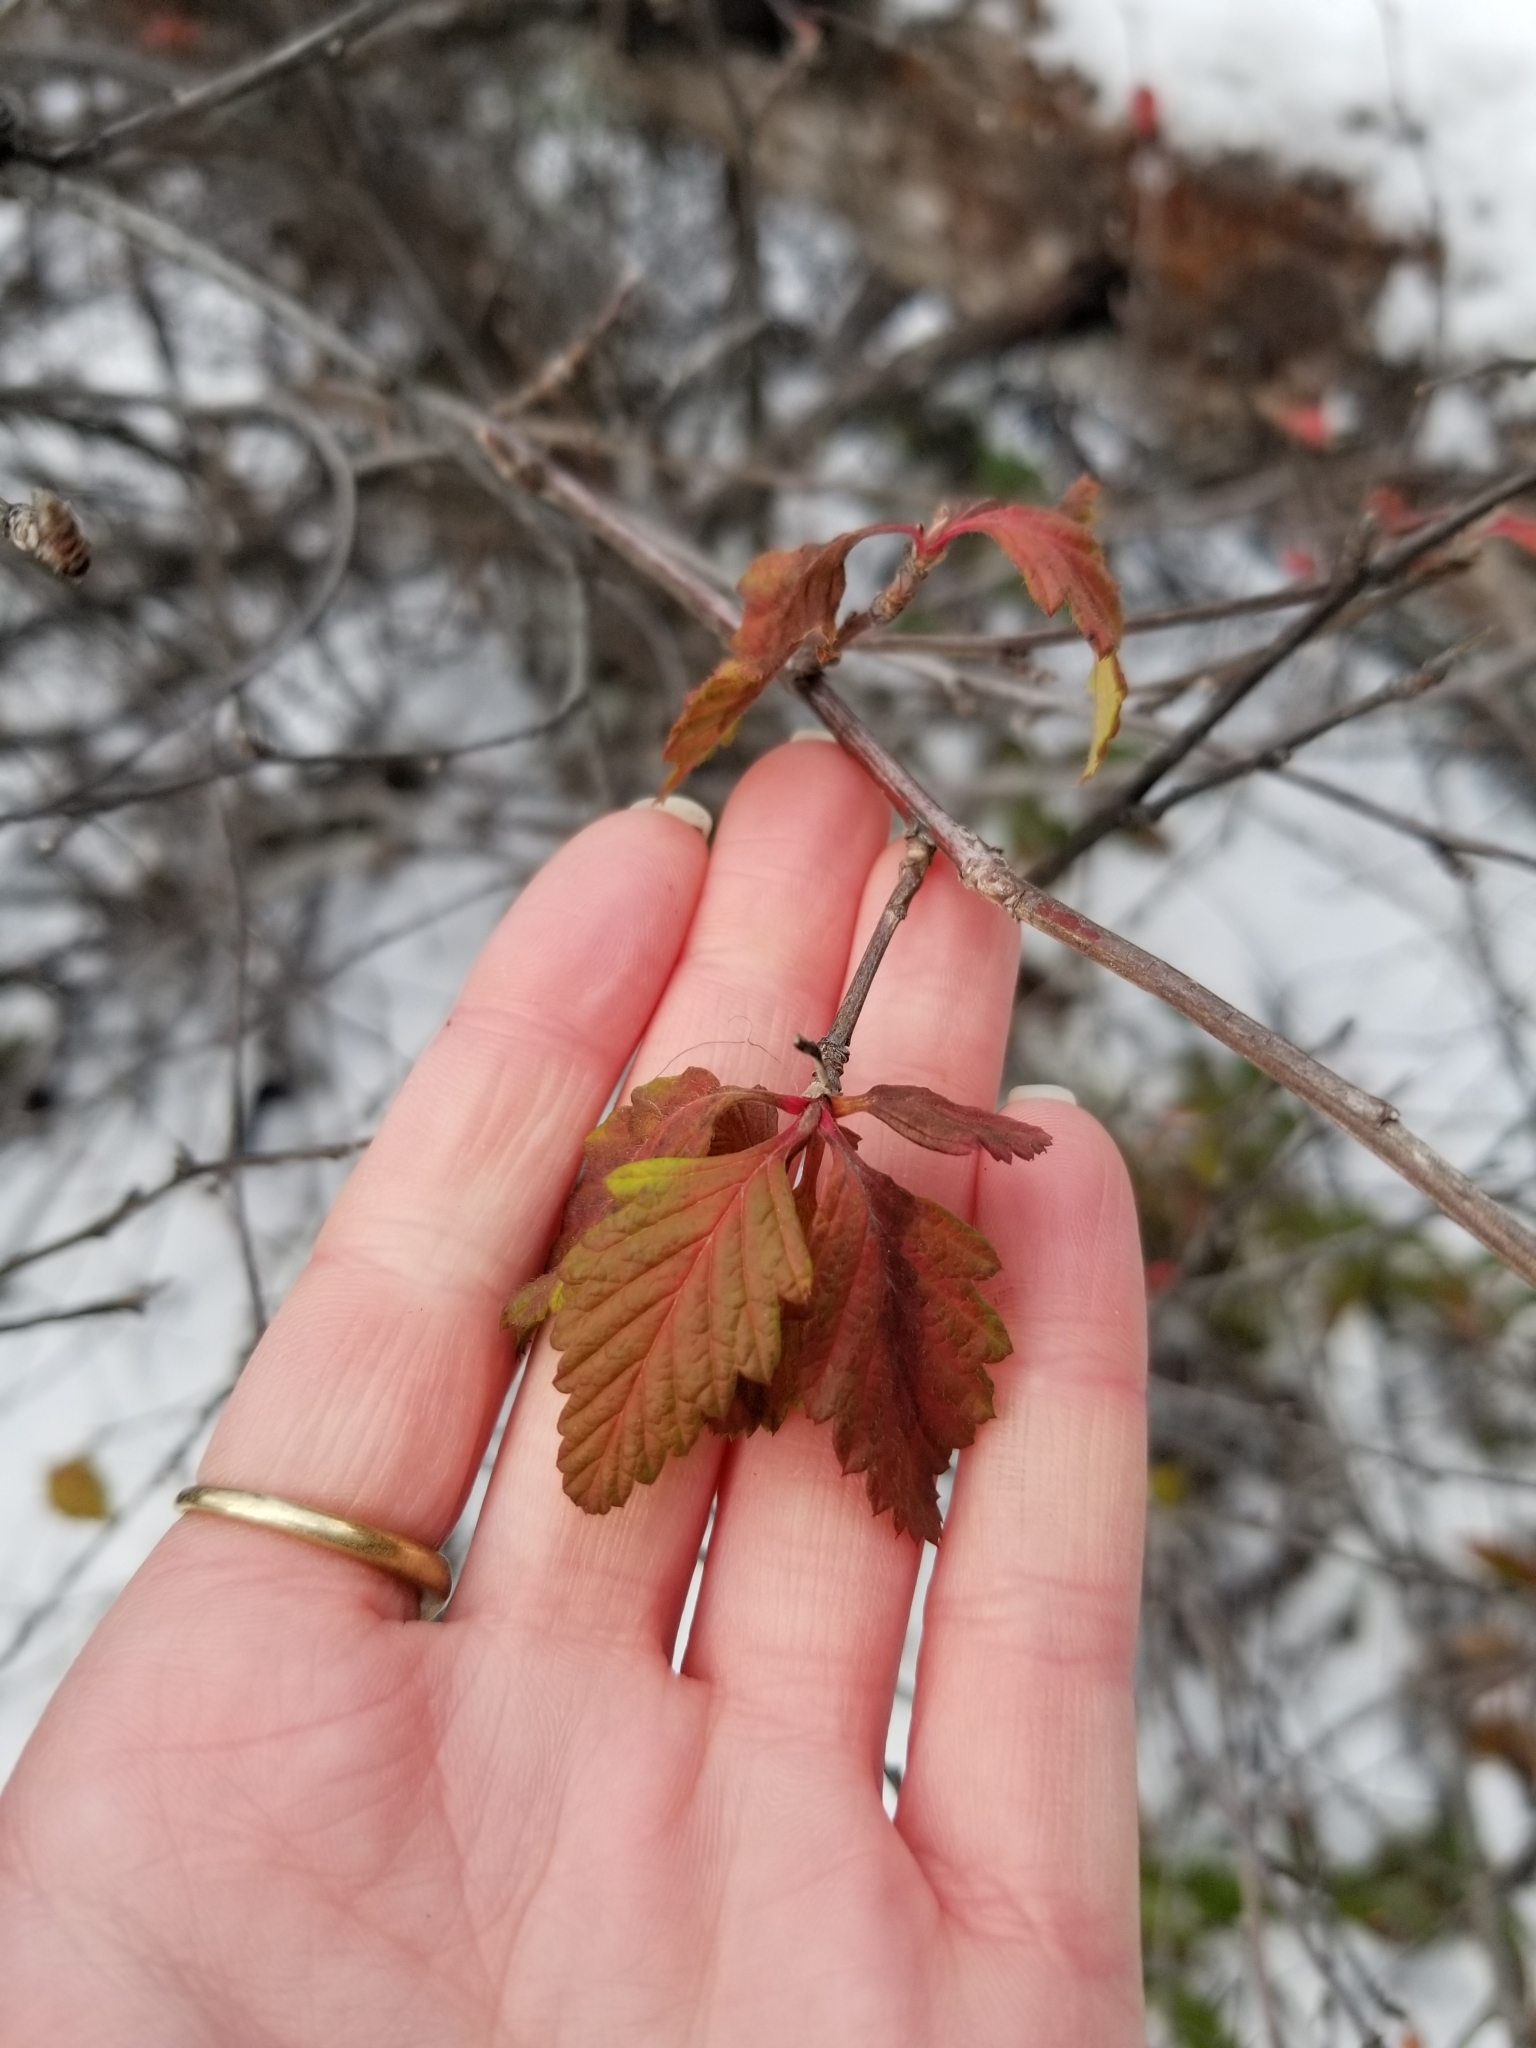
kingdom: Plantae
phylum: Tracheophyta
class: Magnoliopsida
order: Rosales
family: Rosaceae
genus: Holodiscus
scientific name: Holodiscus discolor
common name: Oceanspray
